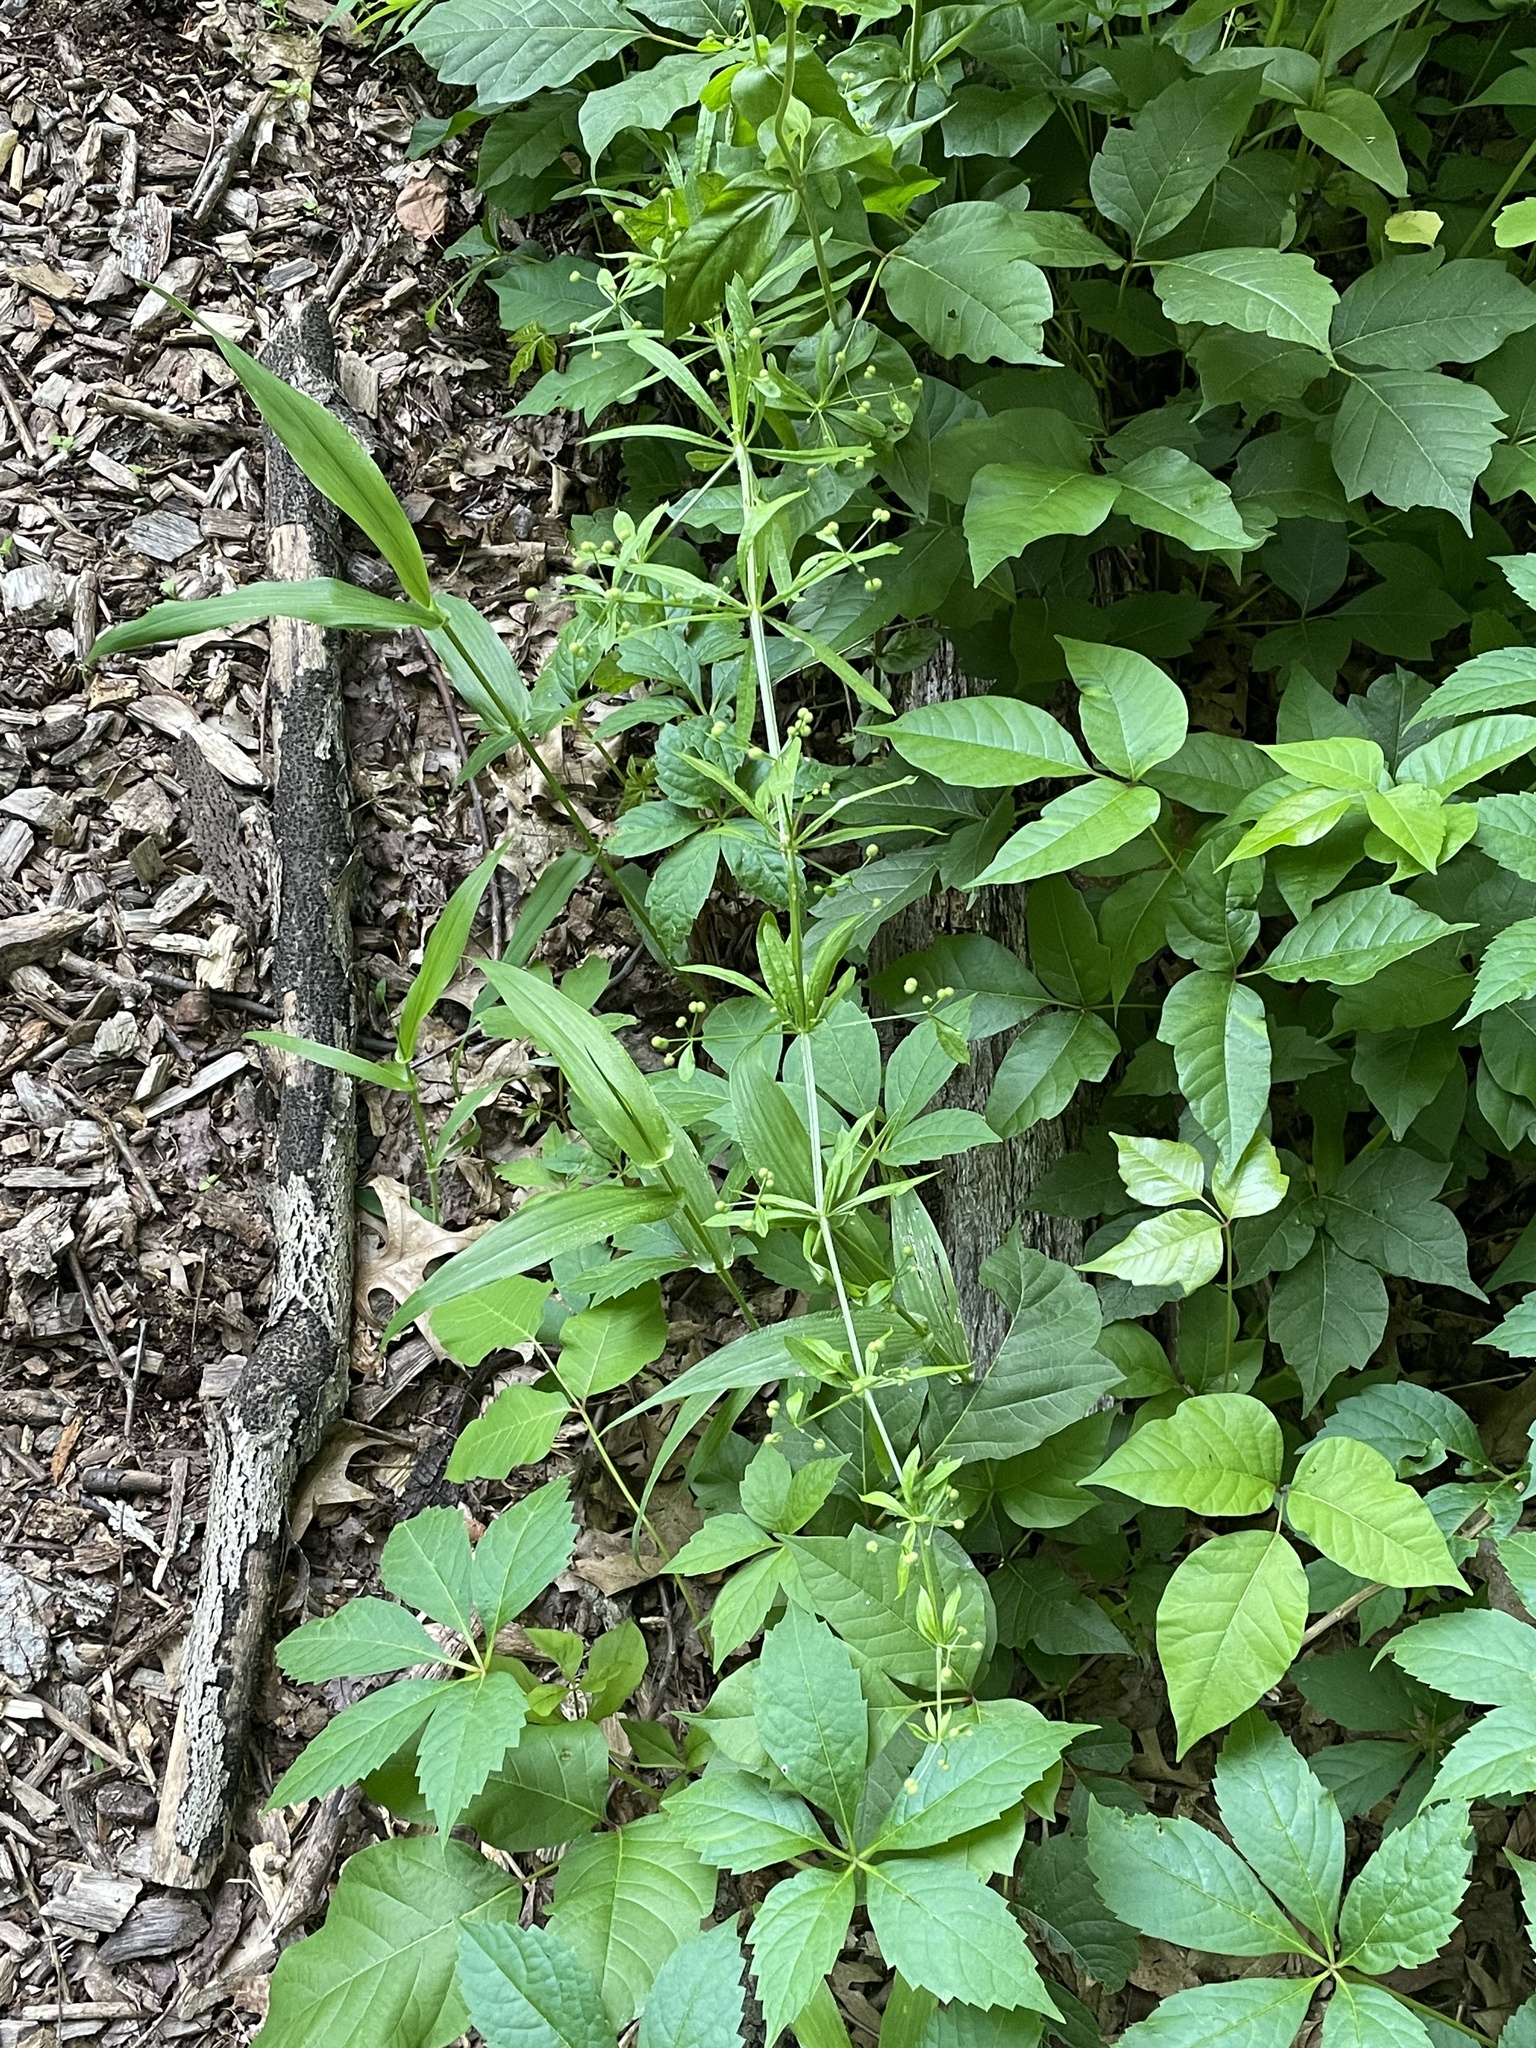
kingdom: Plantae
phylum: Tracheophyta
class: Magnoliopsida
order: Gentianales
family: Rubiaceae
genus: Galium
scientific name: Galium aparine
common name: Cleavers
